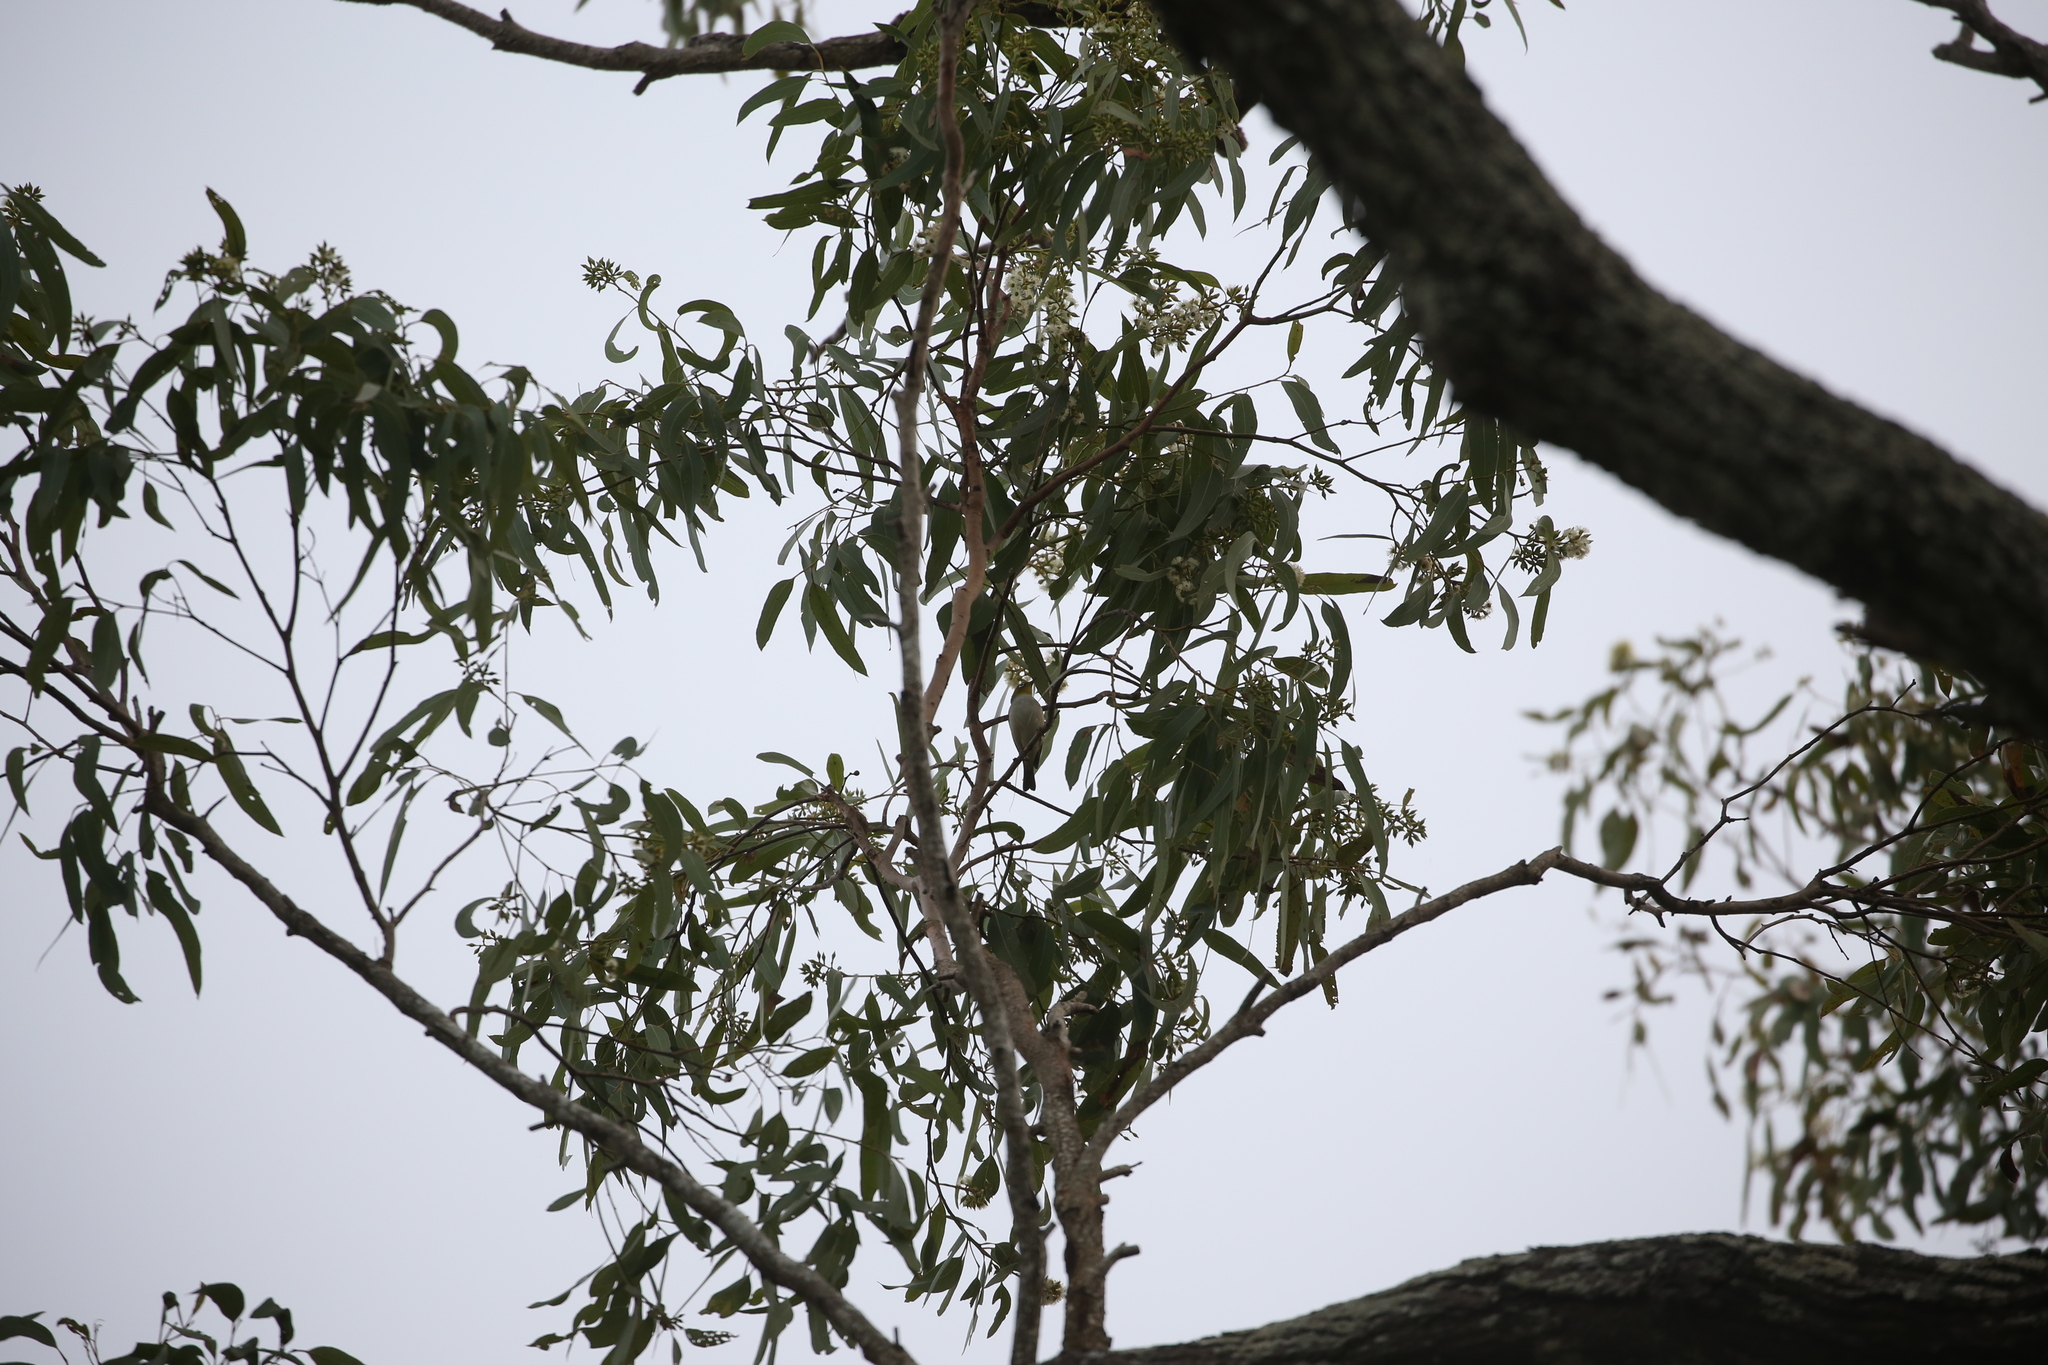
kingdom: Animalia
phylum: Chordata
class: Aves
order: Passeriformes
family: Zosteropidae
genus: Zosterops
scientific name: Zosterops lateralis
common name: Silvereye
